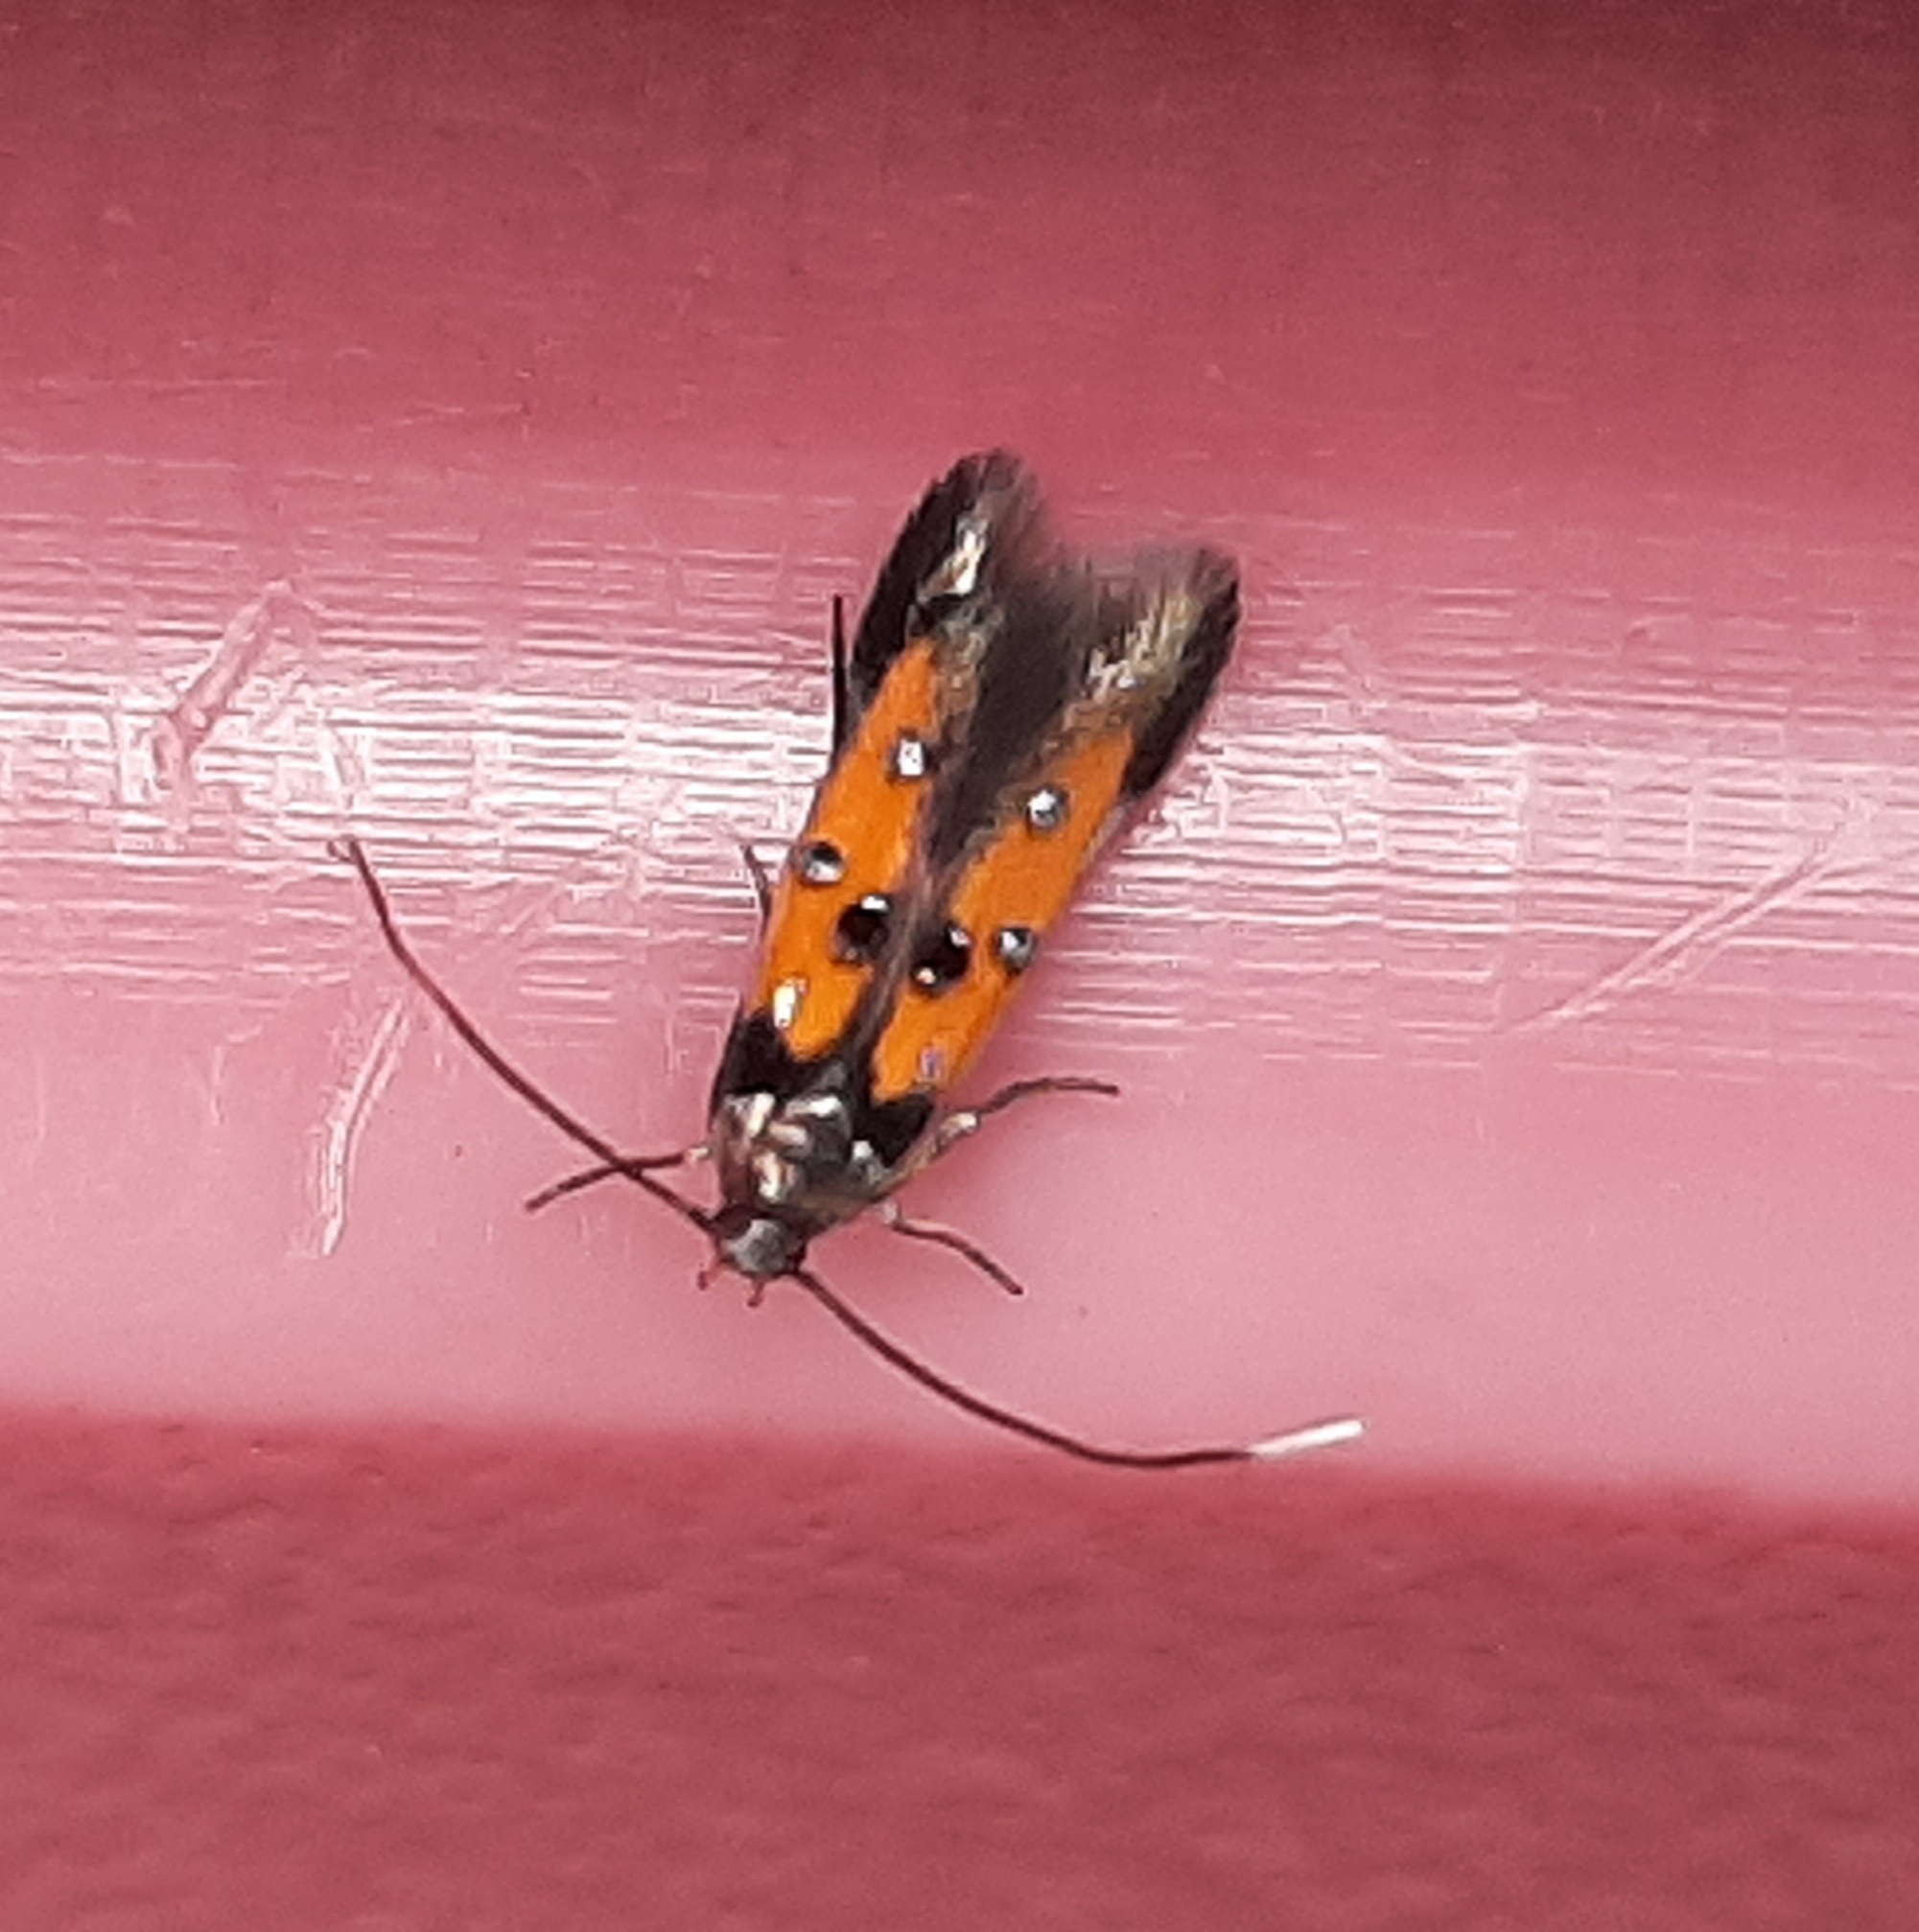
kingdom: Animalia
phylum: Arthropoda
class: Insecta
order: Lepidoptera
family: Elachistidae
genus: Chrysoclista
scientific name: Chrysoclista linneela
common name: Lime cosmet
